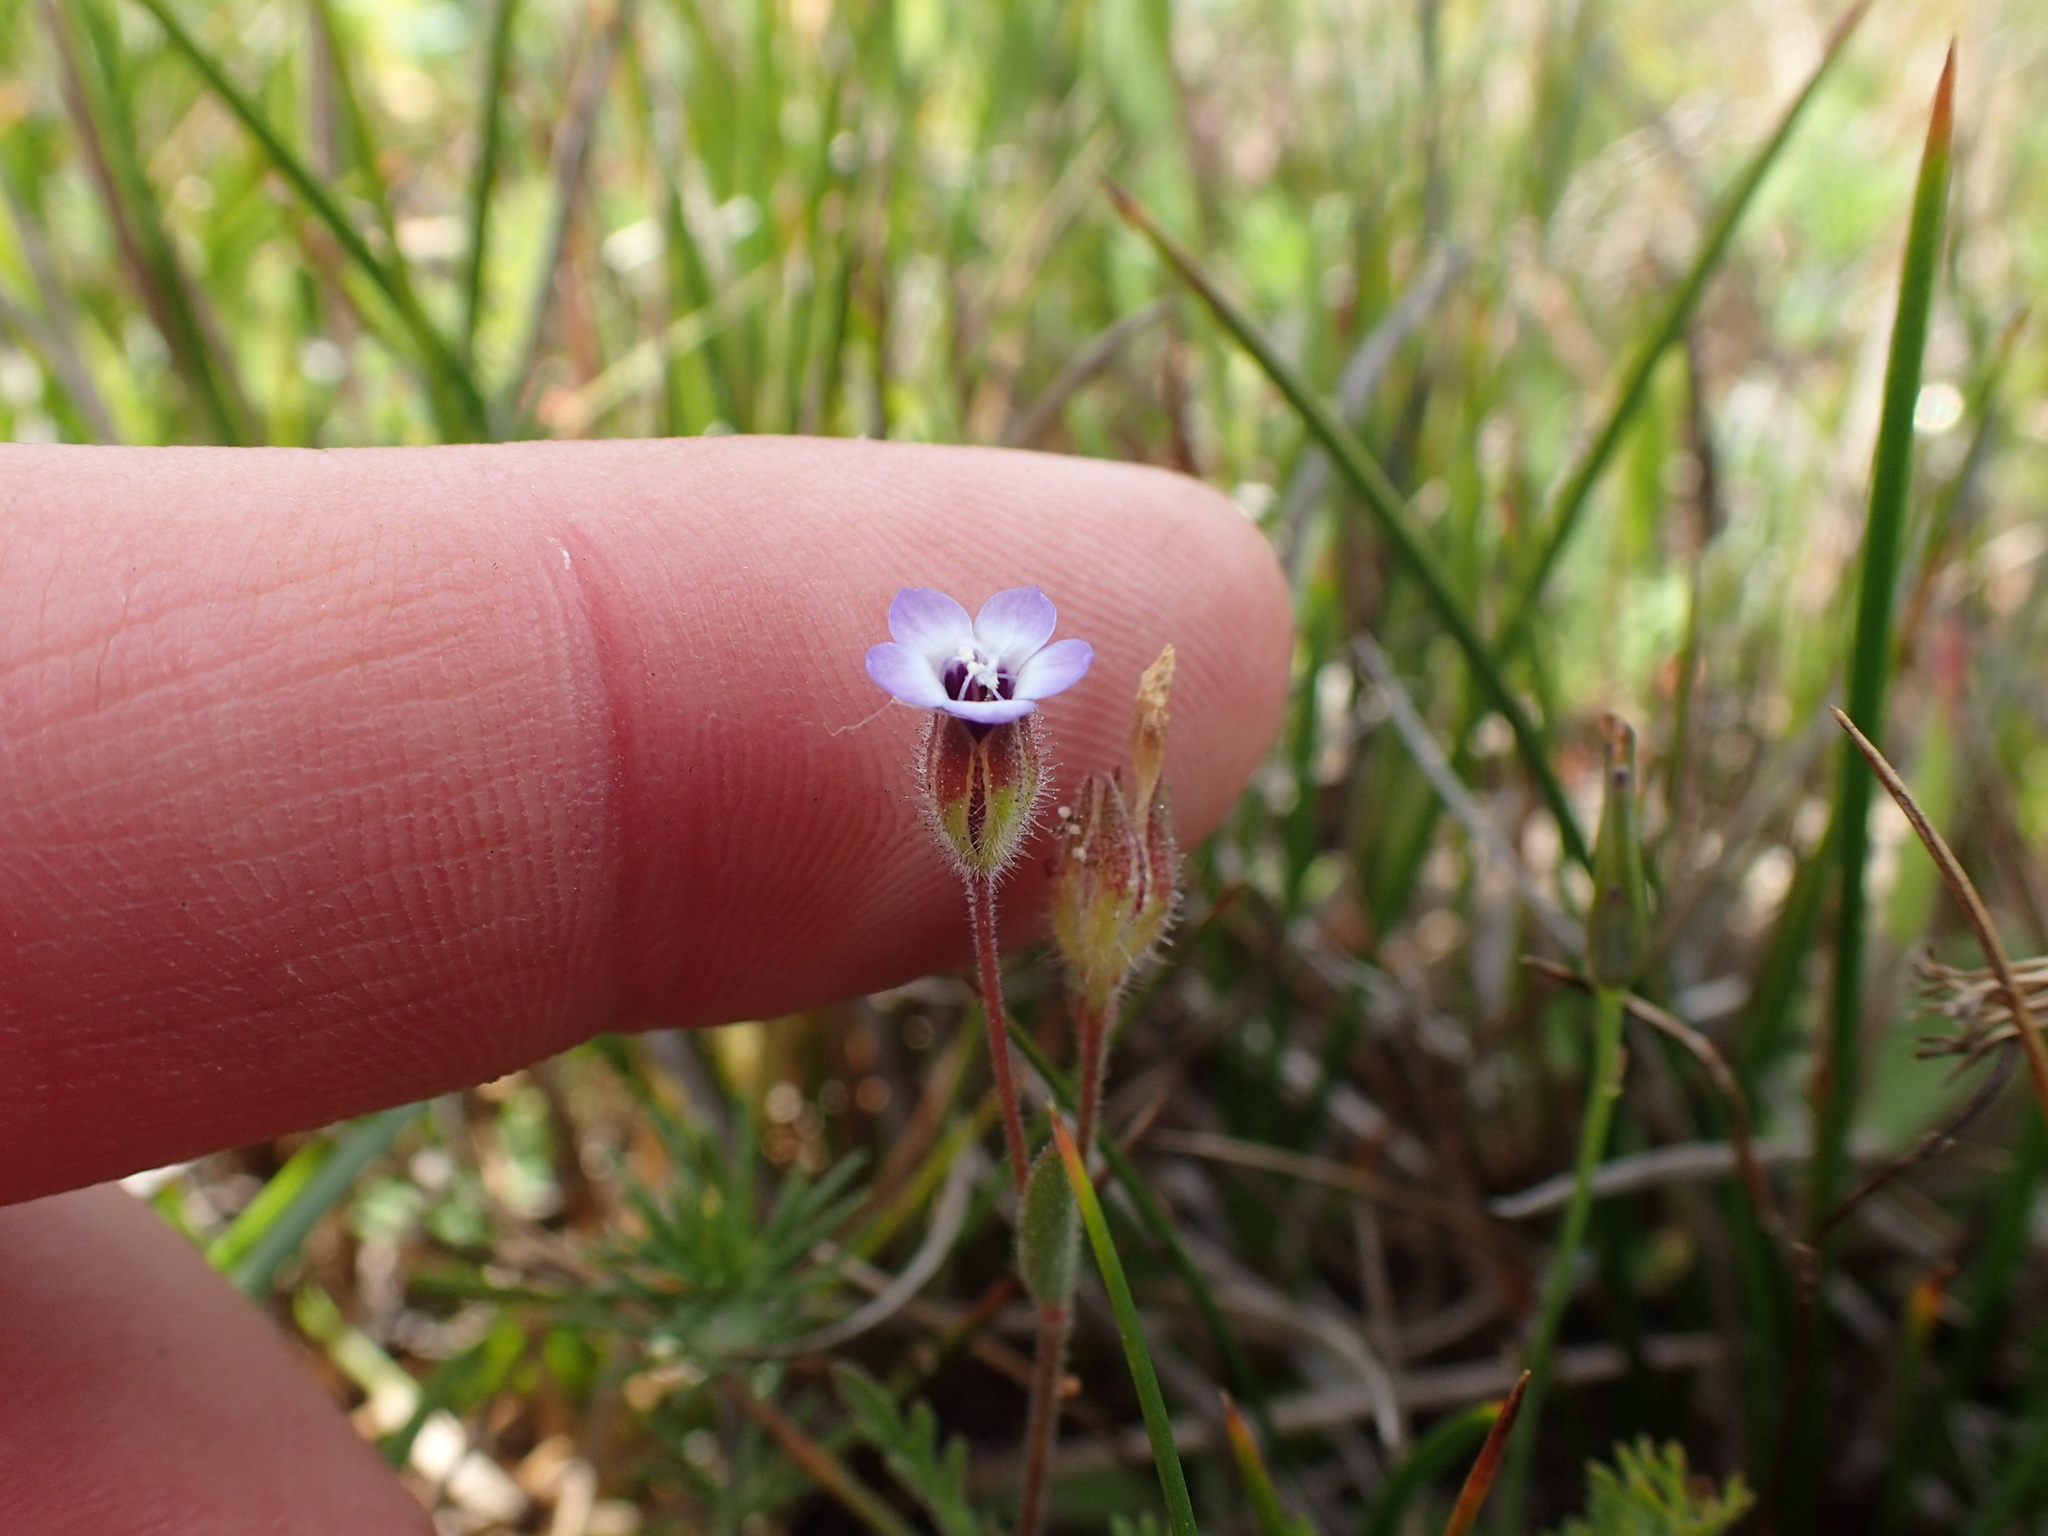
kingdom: Plantae
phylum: Tracheophyta
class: Magnoliopsida
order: Ericales
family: Polemoniaceae
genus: Gilia
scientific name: Gilia millefoliata
